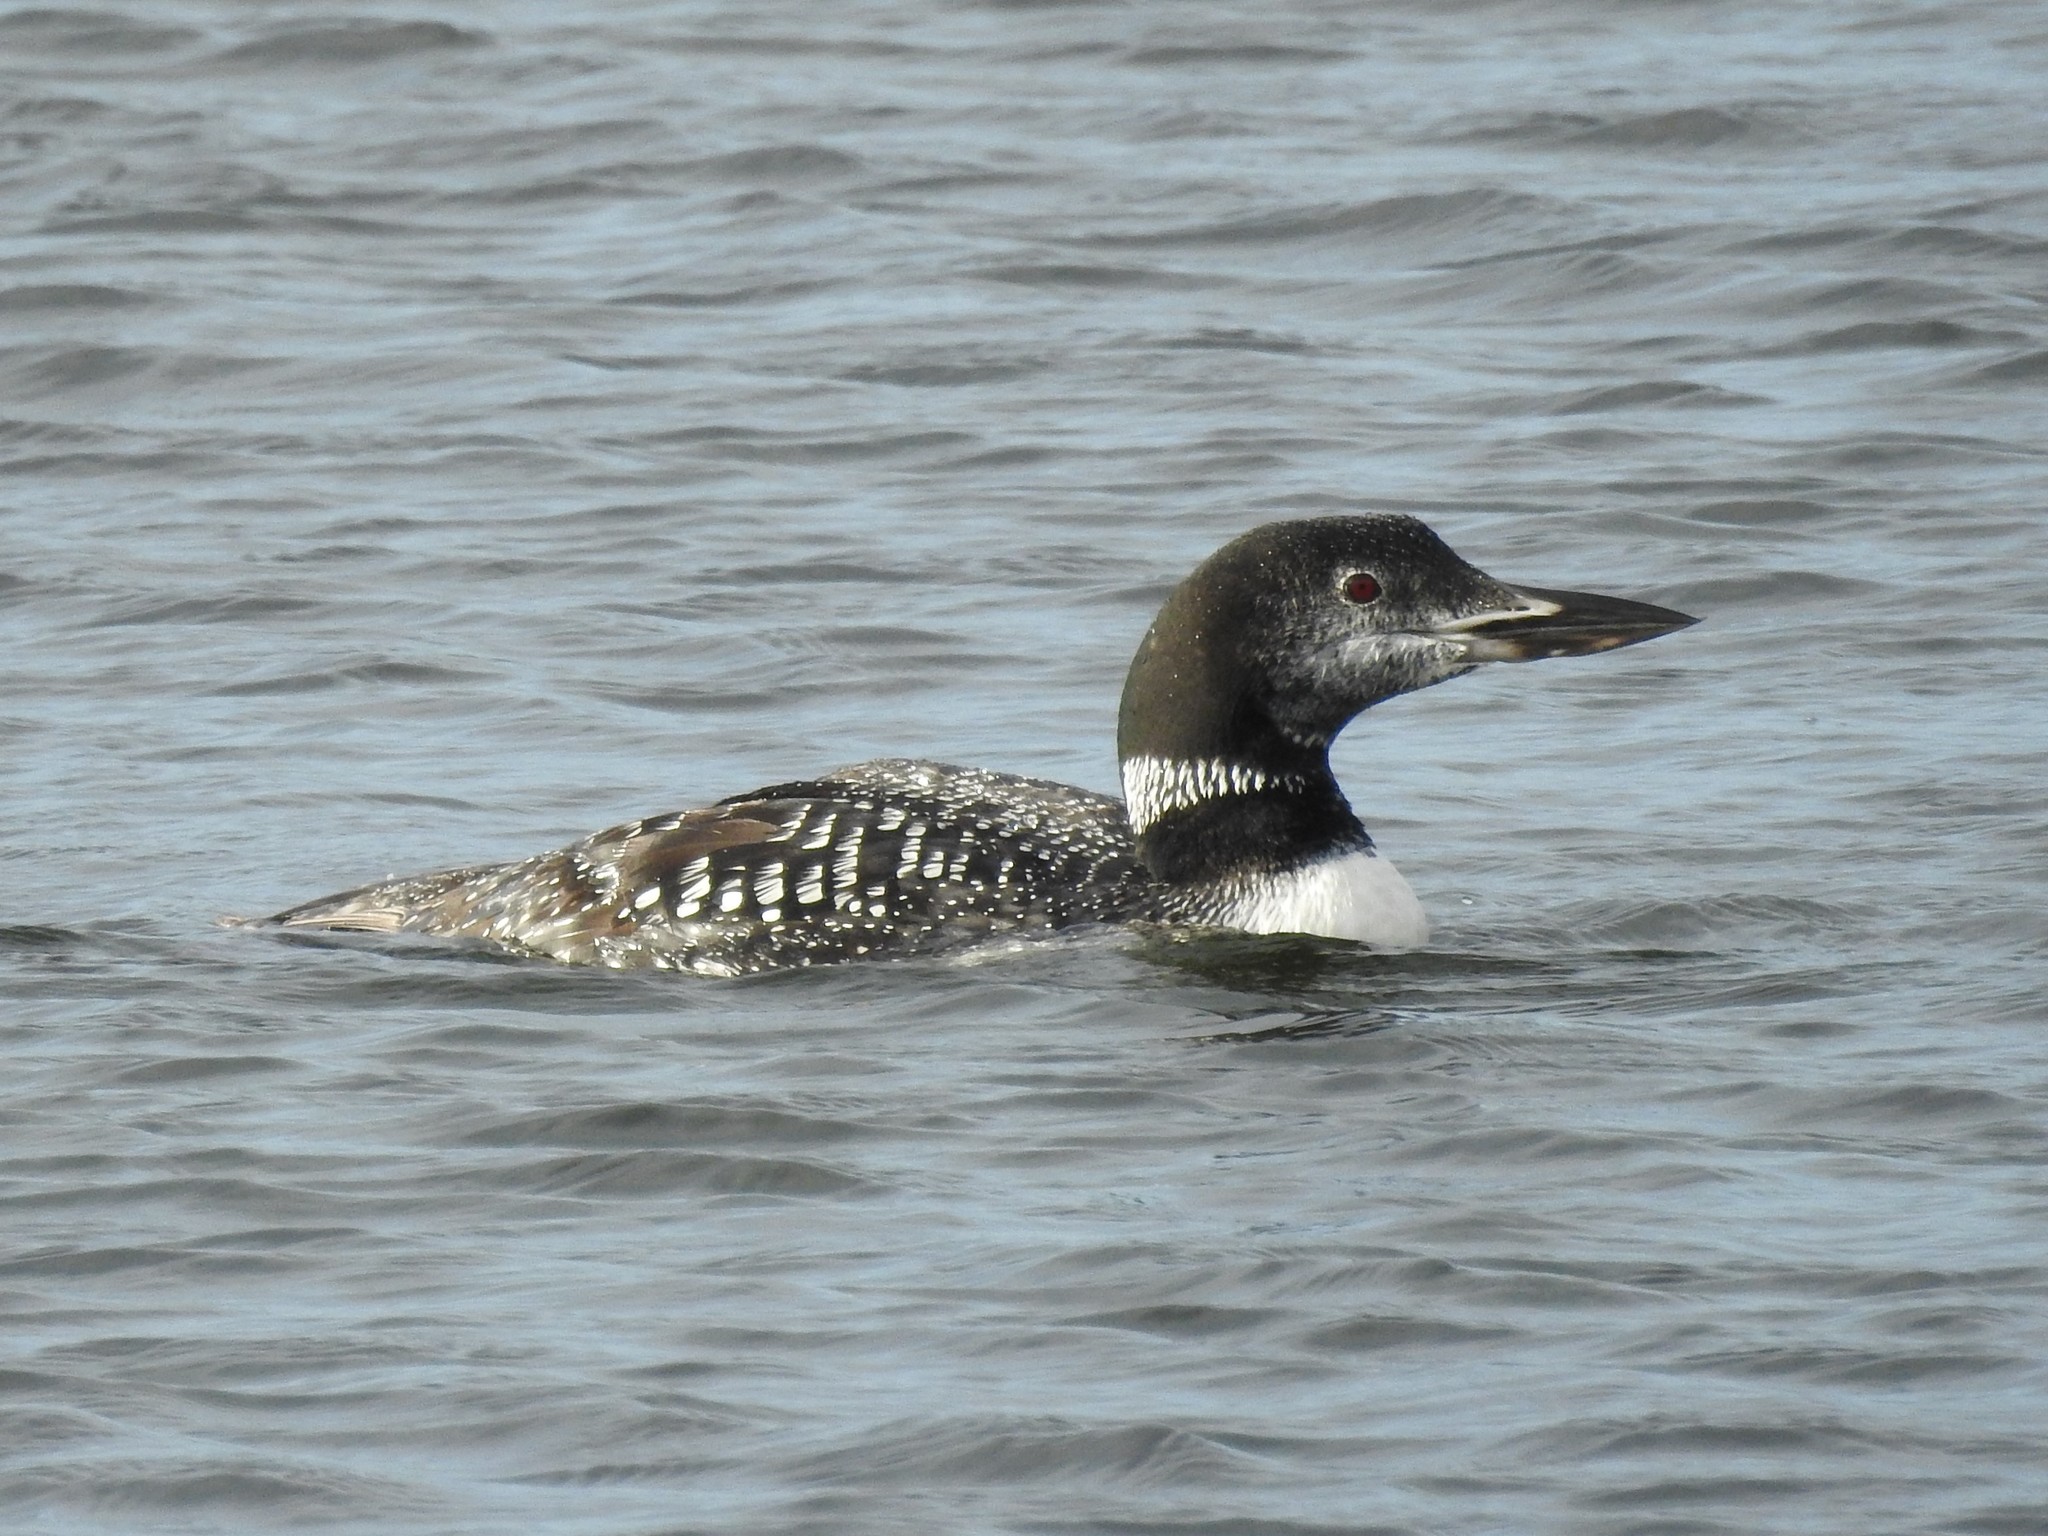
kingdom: Animalia
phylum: Chordata
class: Aves
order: Gaviiformes
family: Gaviidae
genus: Gavia
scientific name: Gavia immer
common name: Common loon
